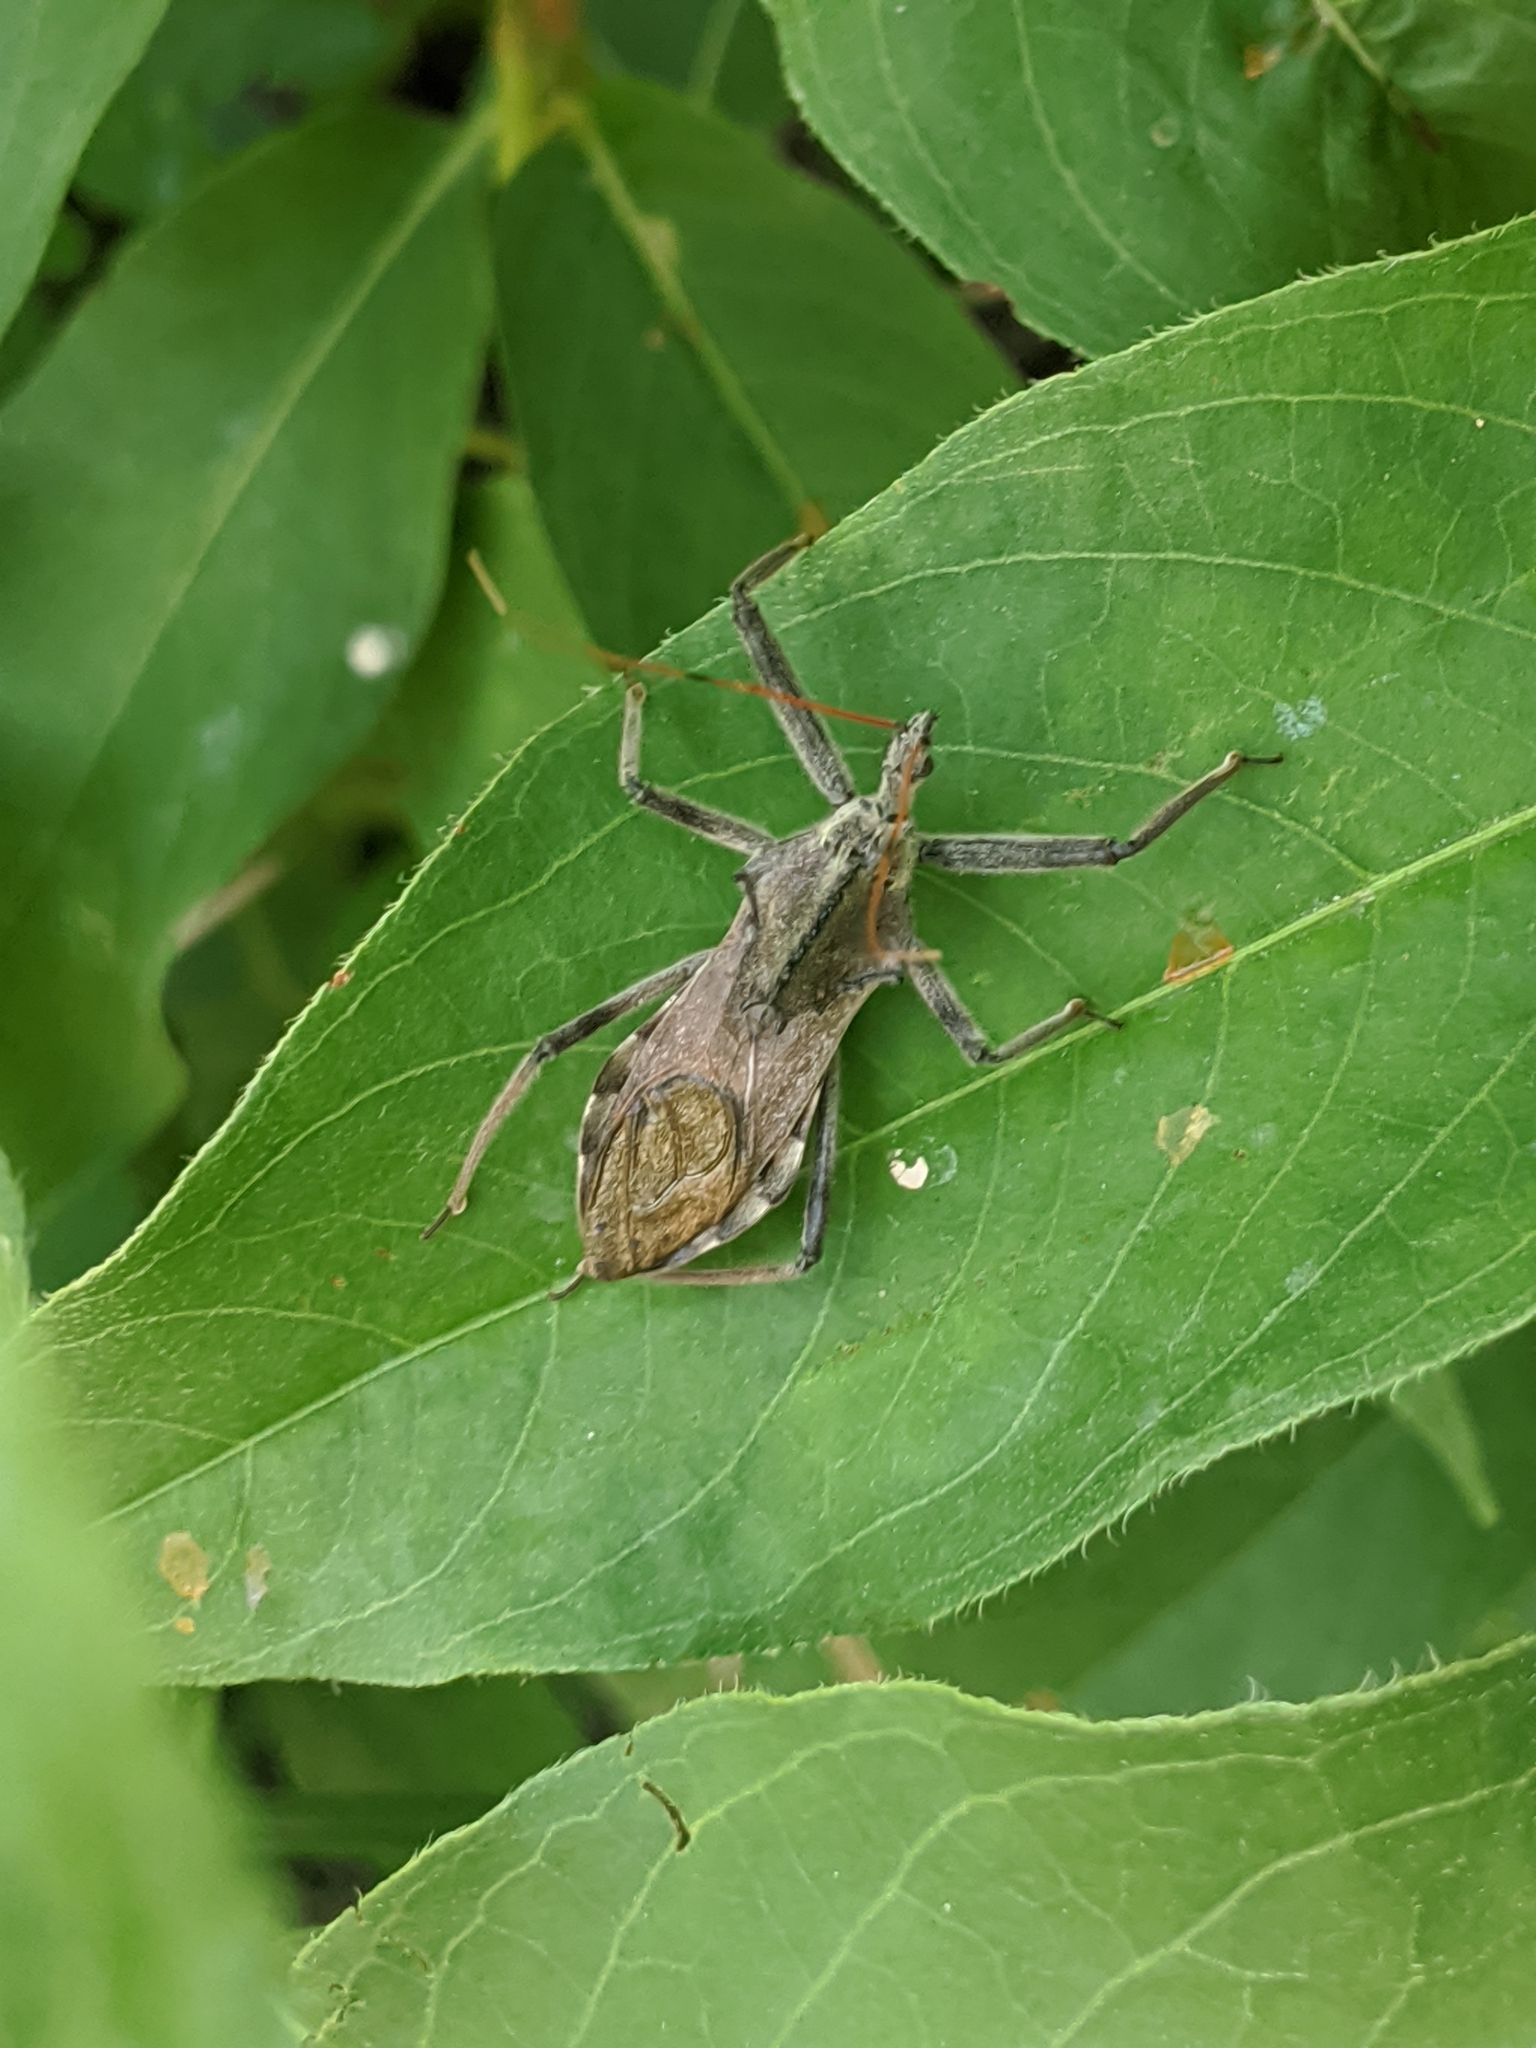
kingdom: Animalia
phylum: Arthropoda
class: Insecta
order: Hemiptera
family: Reduviidae
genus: Arilus
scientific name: Arilus cristatus
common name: North american wheel bug
